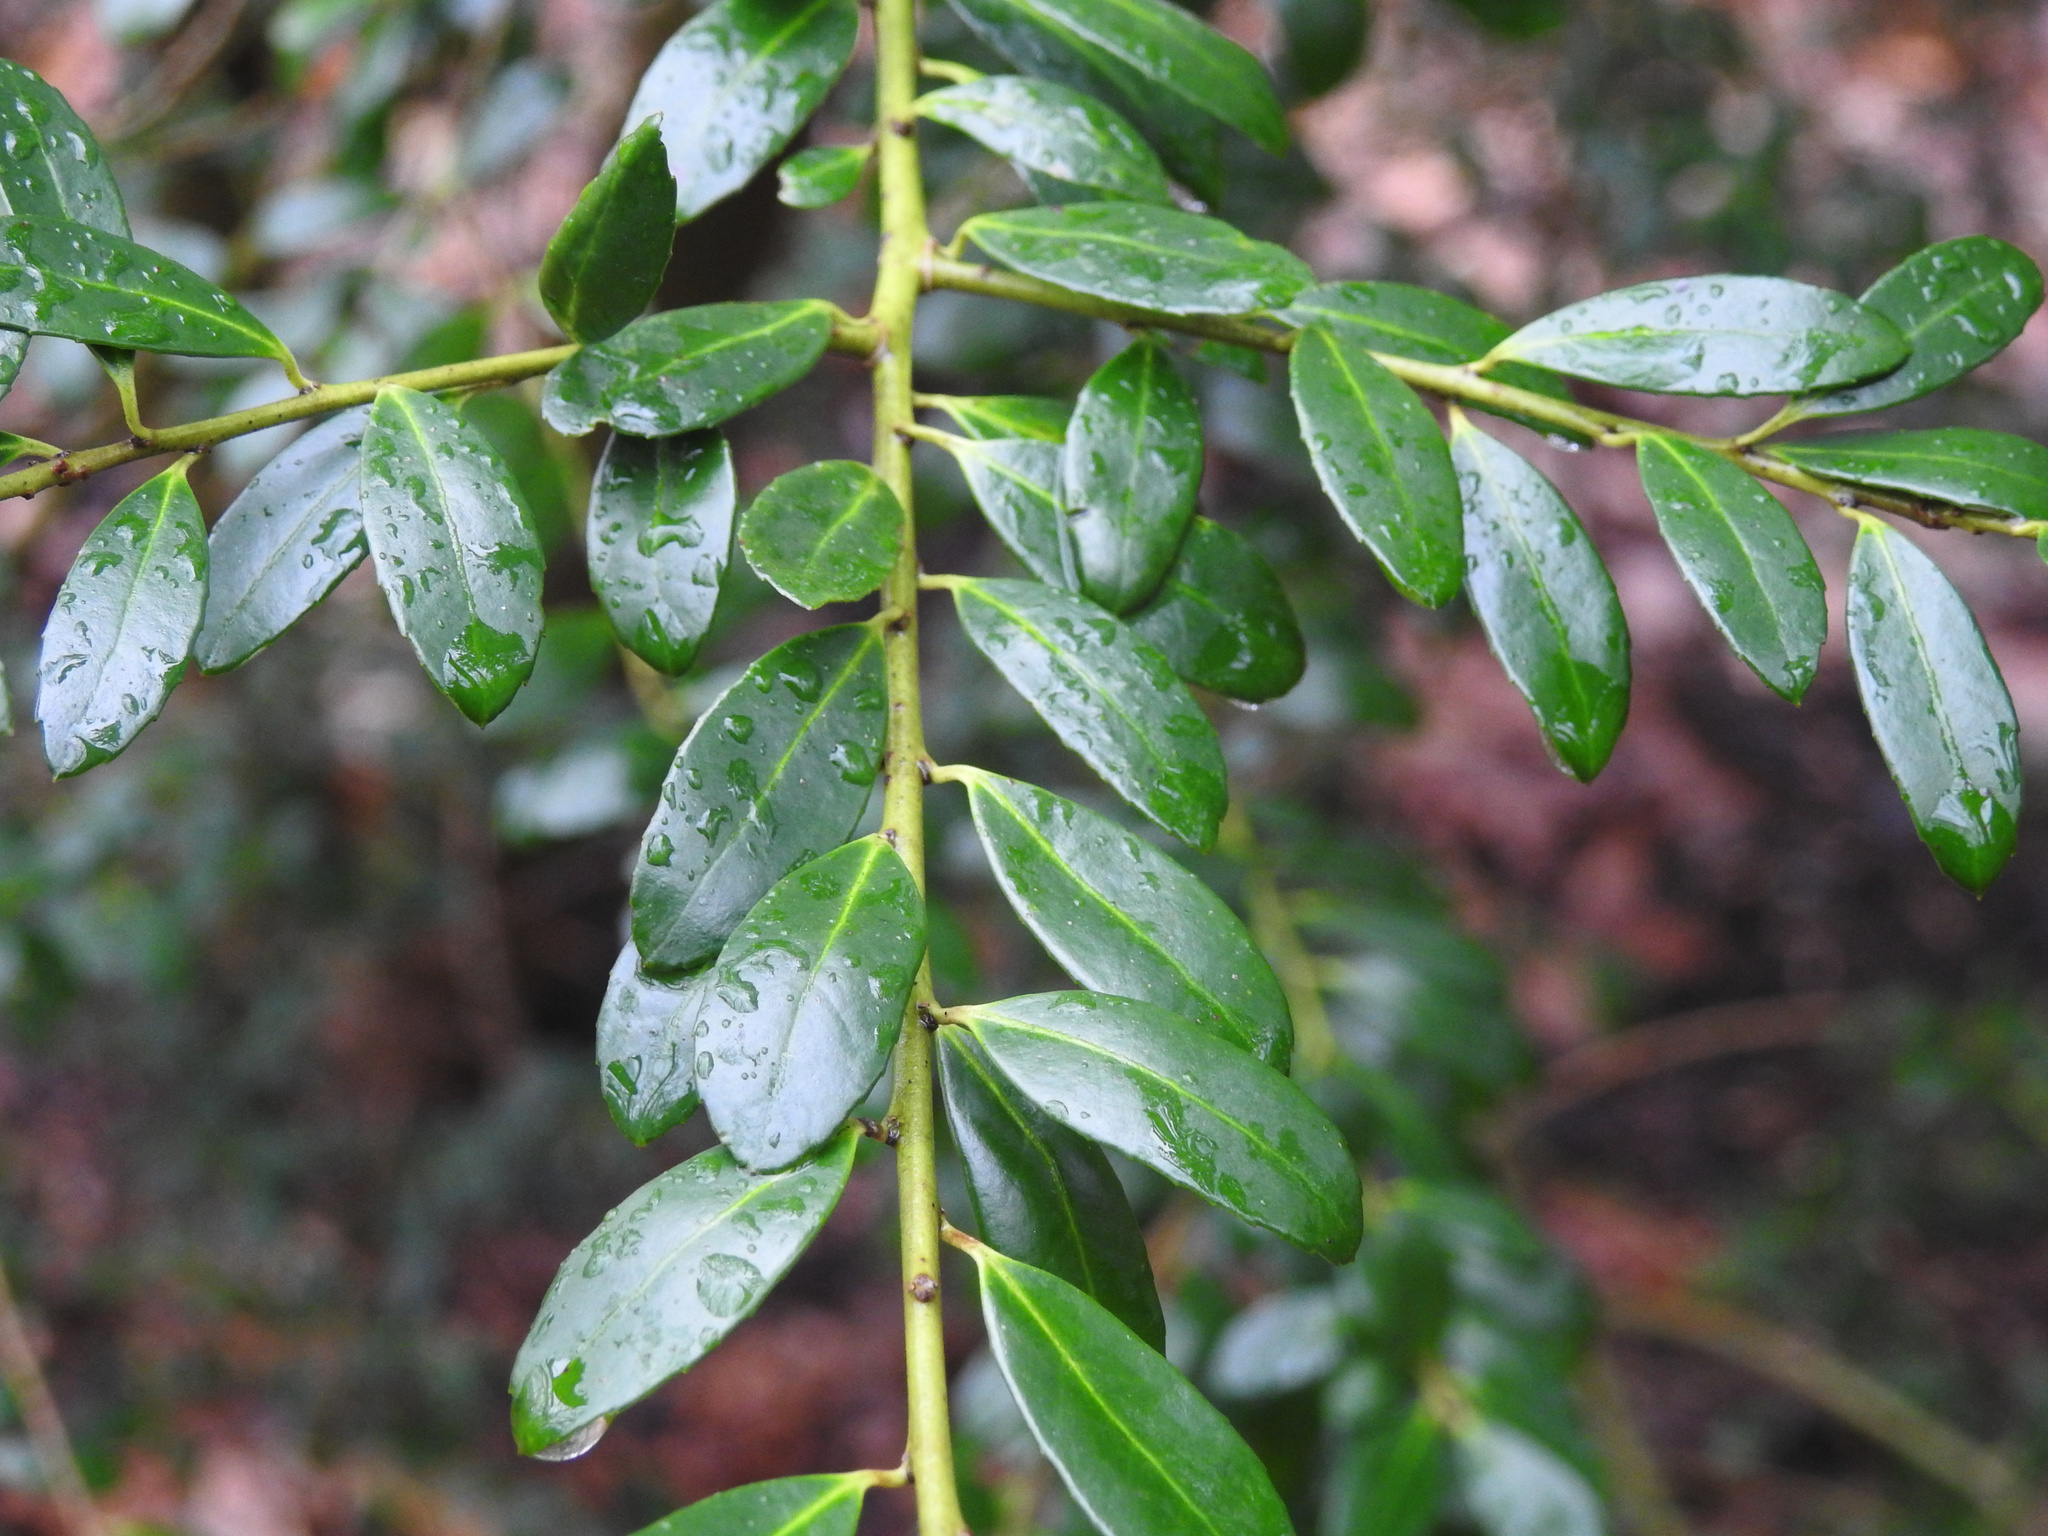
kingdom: Plantae
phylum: Tracheophyta
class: Magnoliopsida
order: Aquifoliales
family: Aquifoliaceae
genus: Ilex
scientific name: Ilex crenata
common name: Japanese holly
